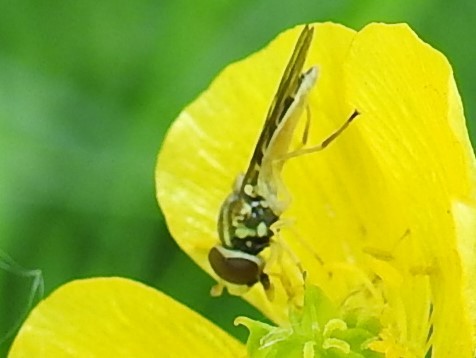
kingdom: Animalia
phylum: Arthropoda
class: Insecta
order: Diptera
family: Syrphidae
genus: Toxomerus
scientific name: Toxomerus marginatus
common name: Syrphid fly
